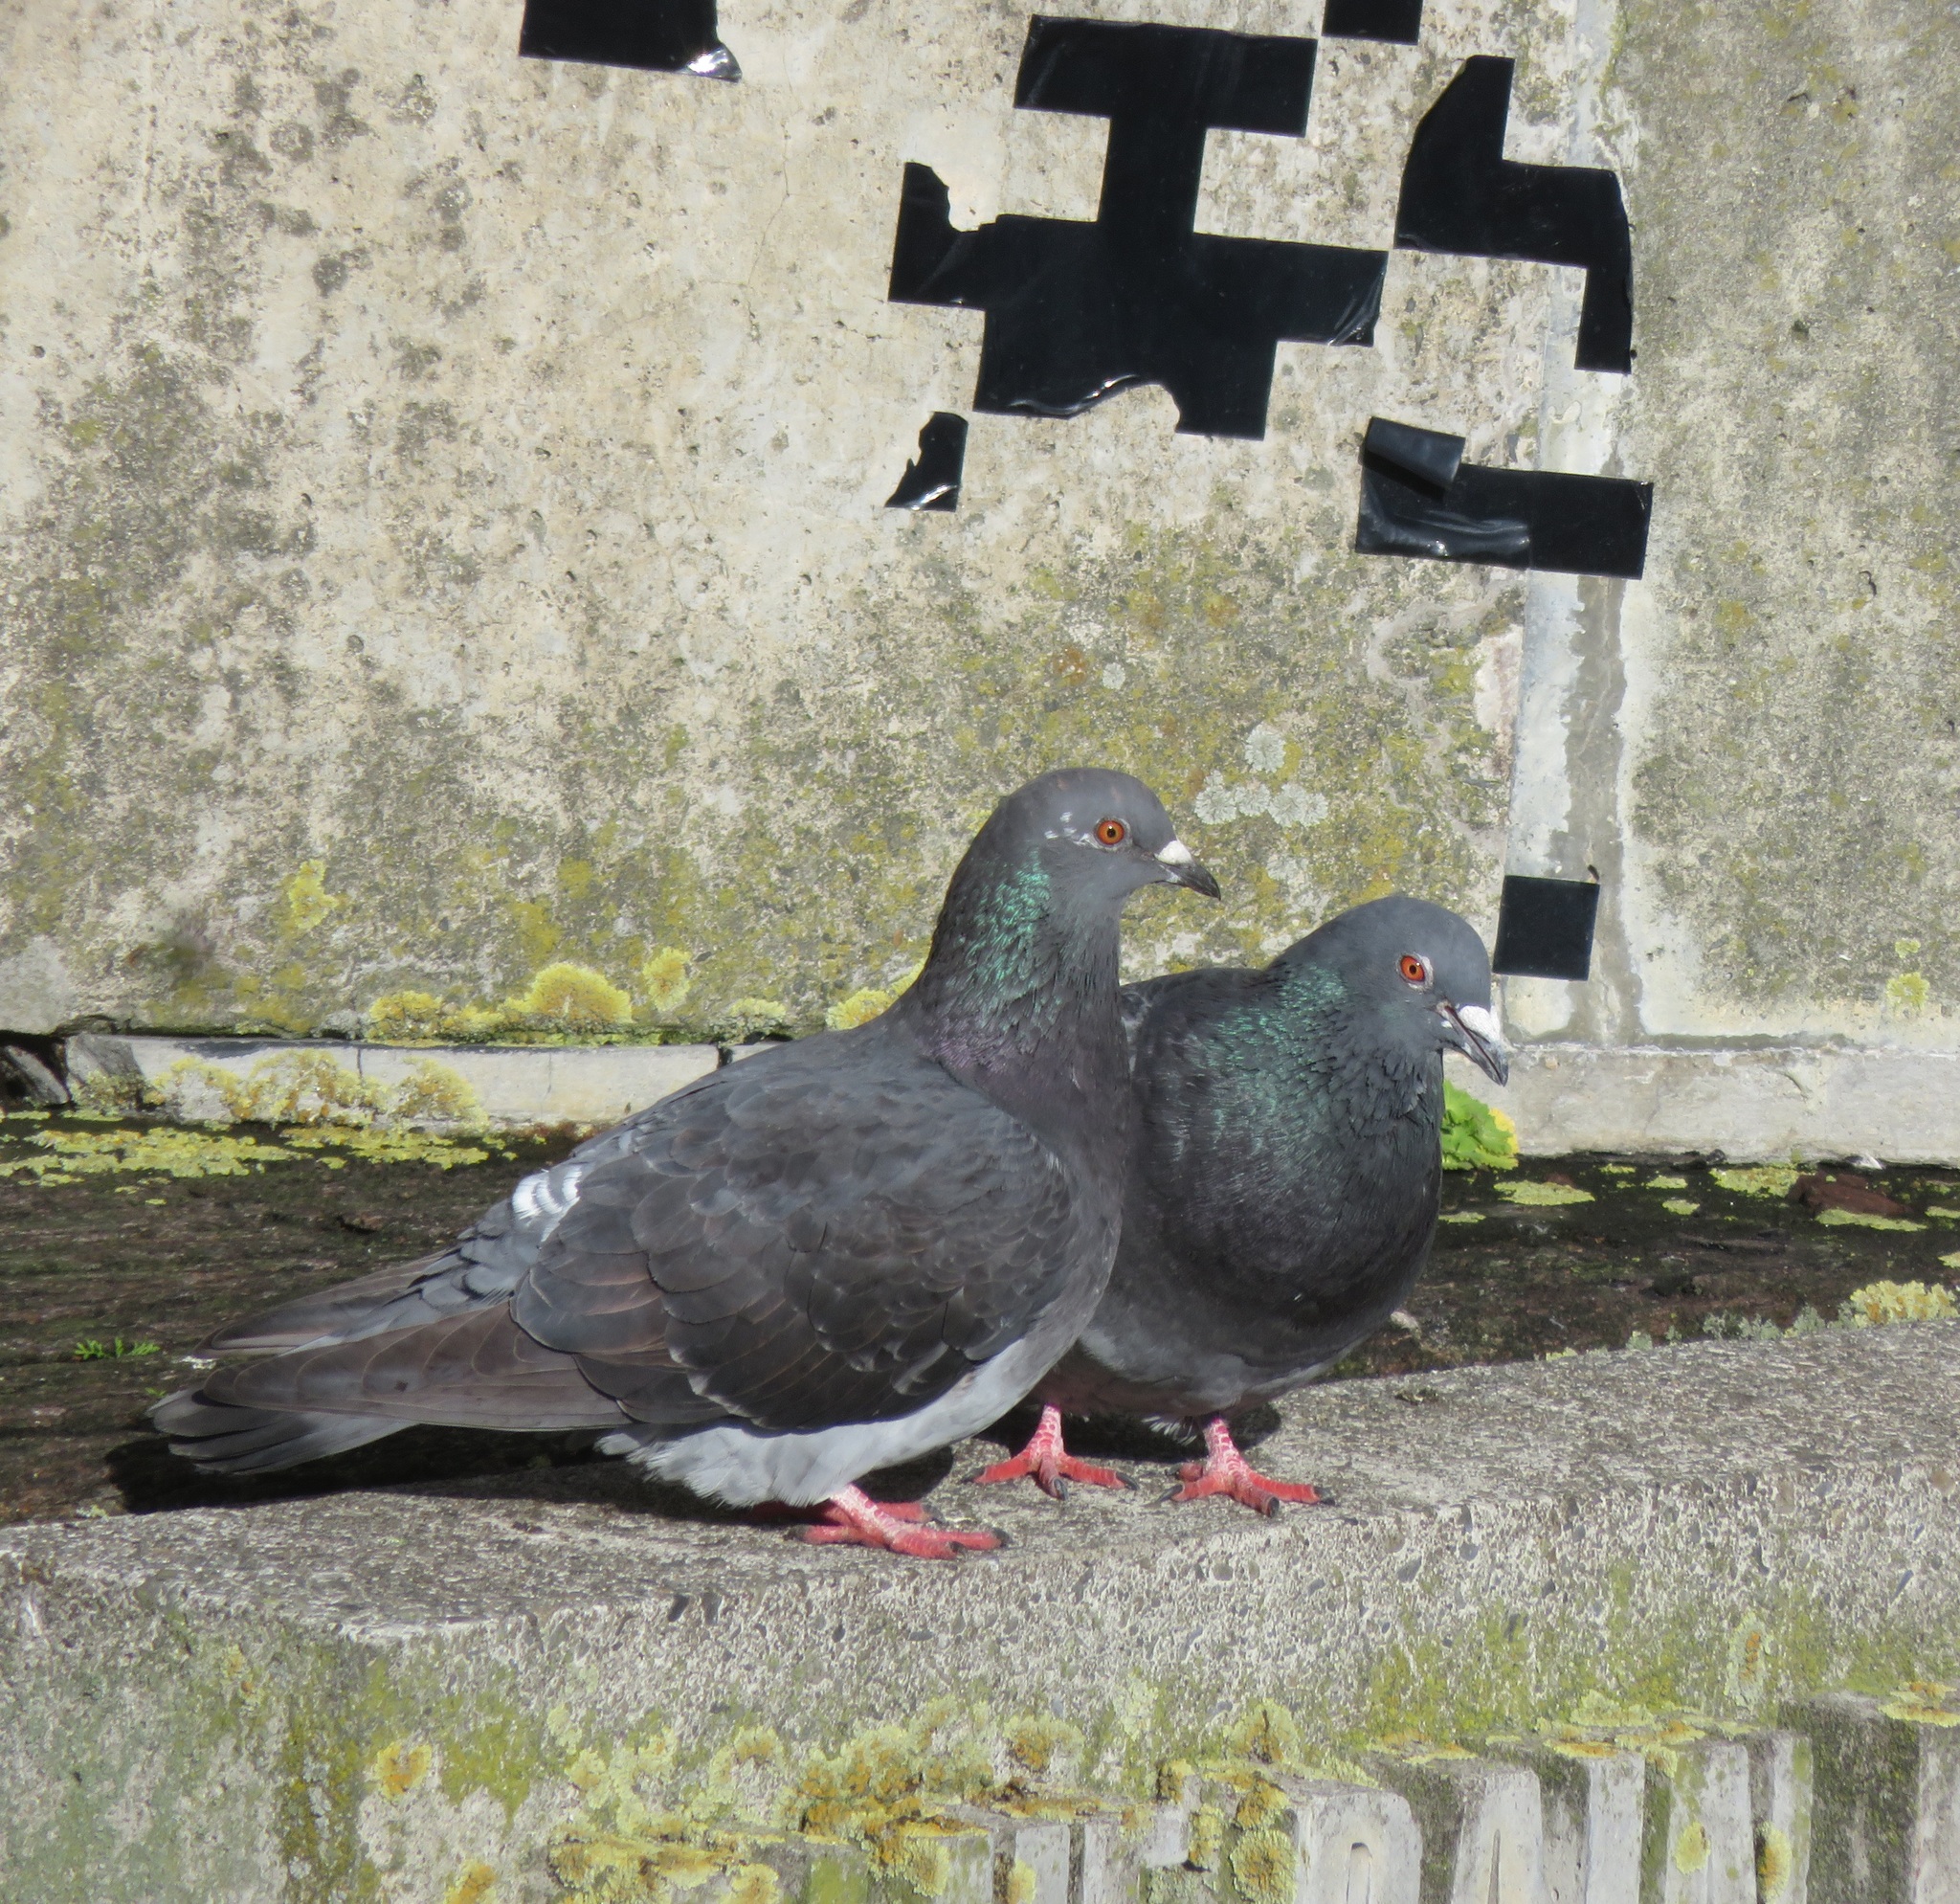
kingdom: Animalia
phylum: Chordata
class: Aves
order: Columbiformes
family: Columbidae
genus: Columba
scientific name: Columba livia
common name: Rock pigeon
